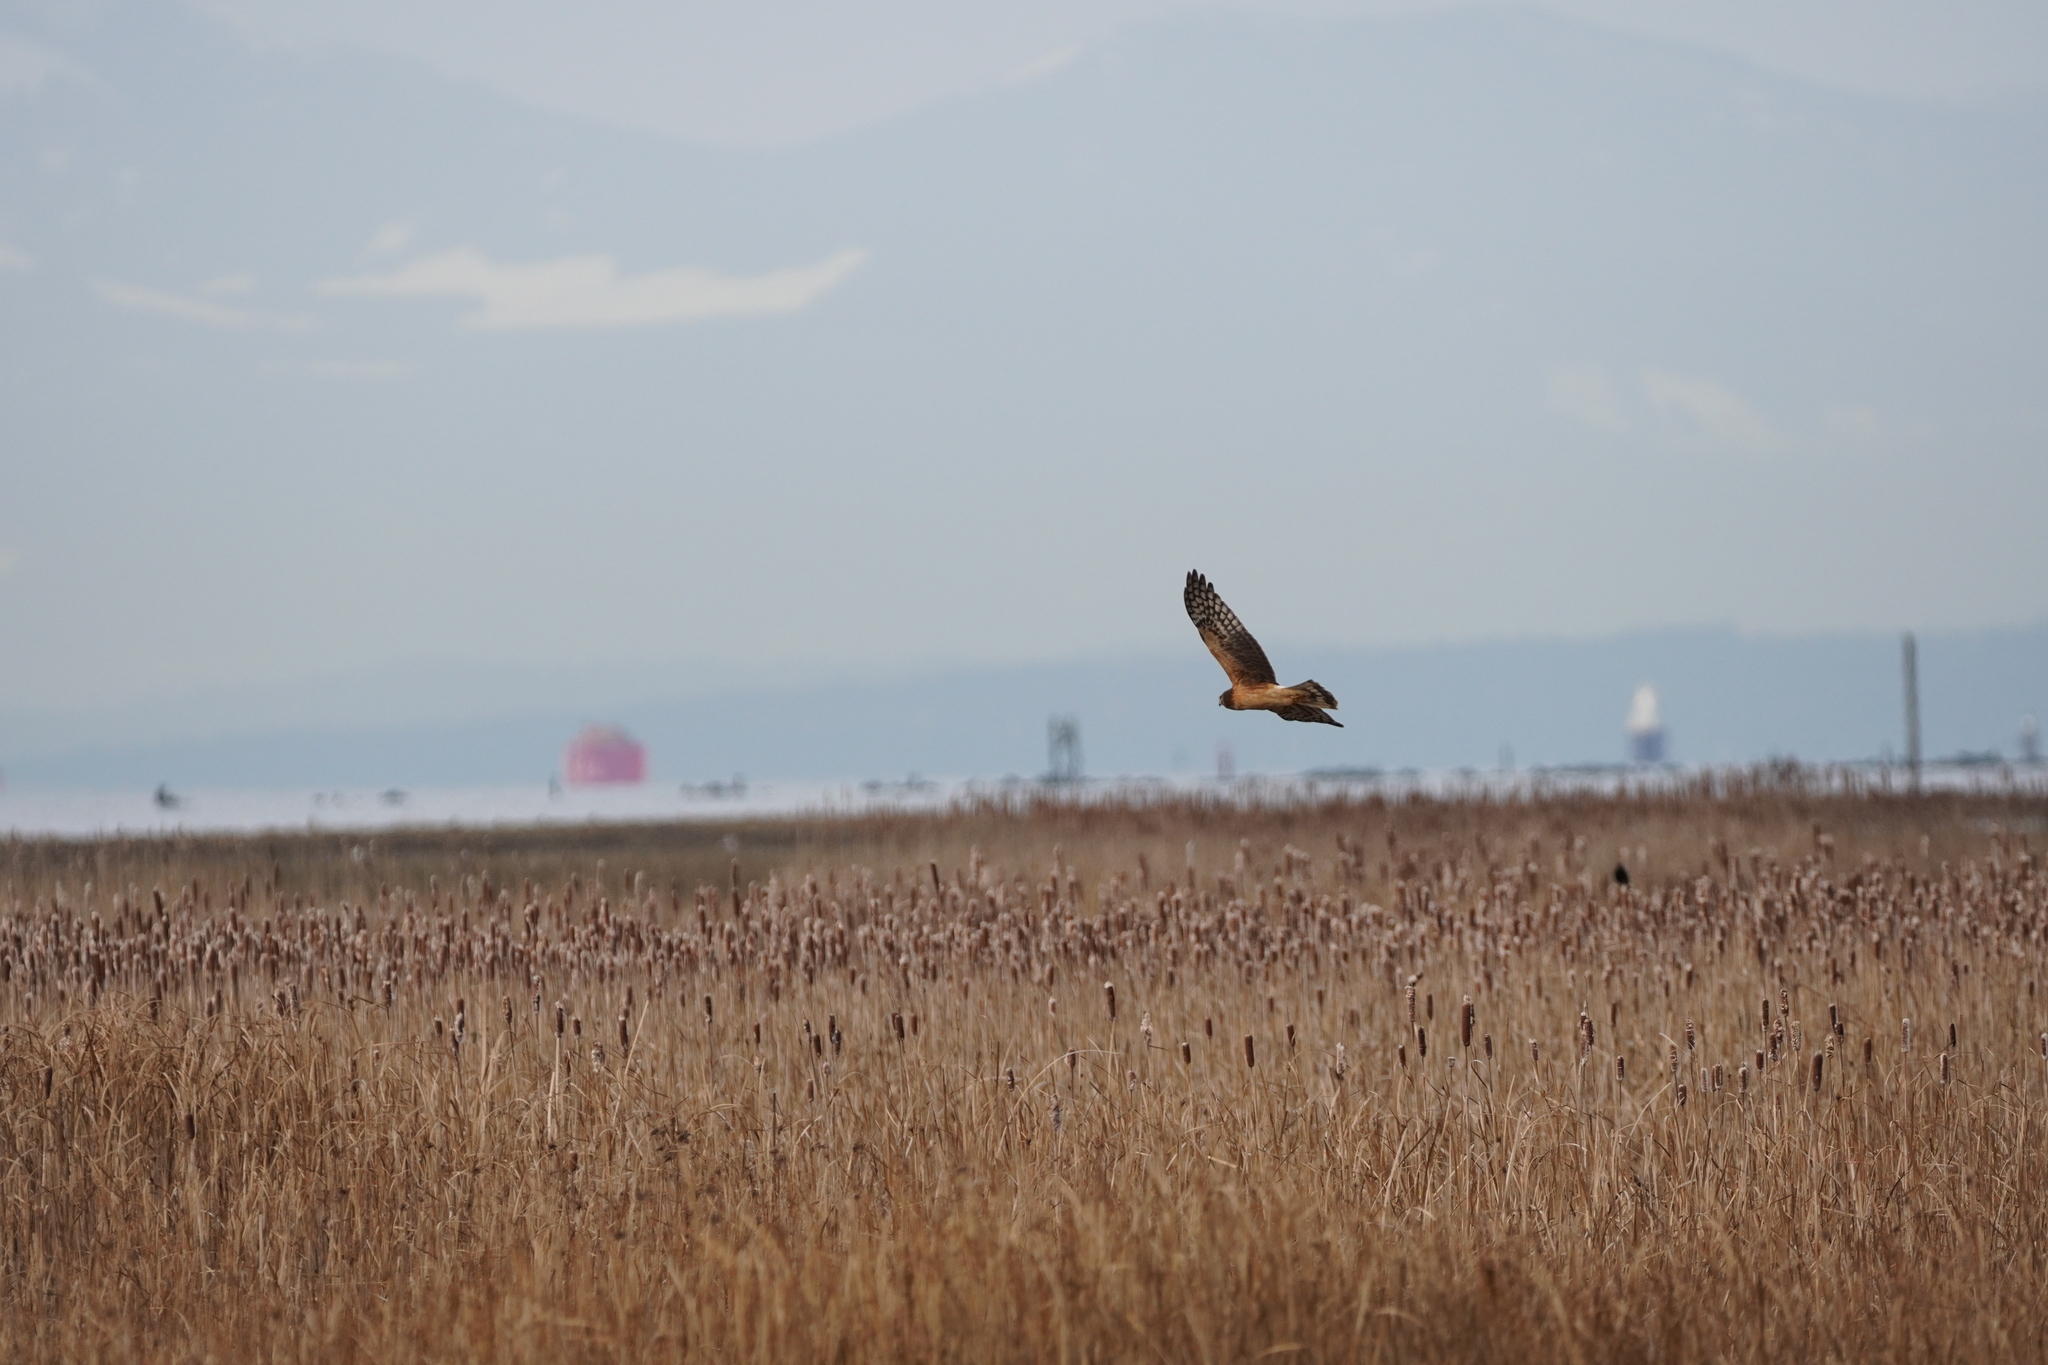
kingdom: Animalia
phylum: Chordata
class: Aves
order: Accipitriformes
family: Accipitridae
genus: Circus
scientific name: Circus cyaneus
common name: Hen harrier
